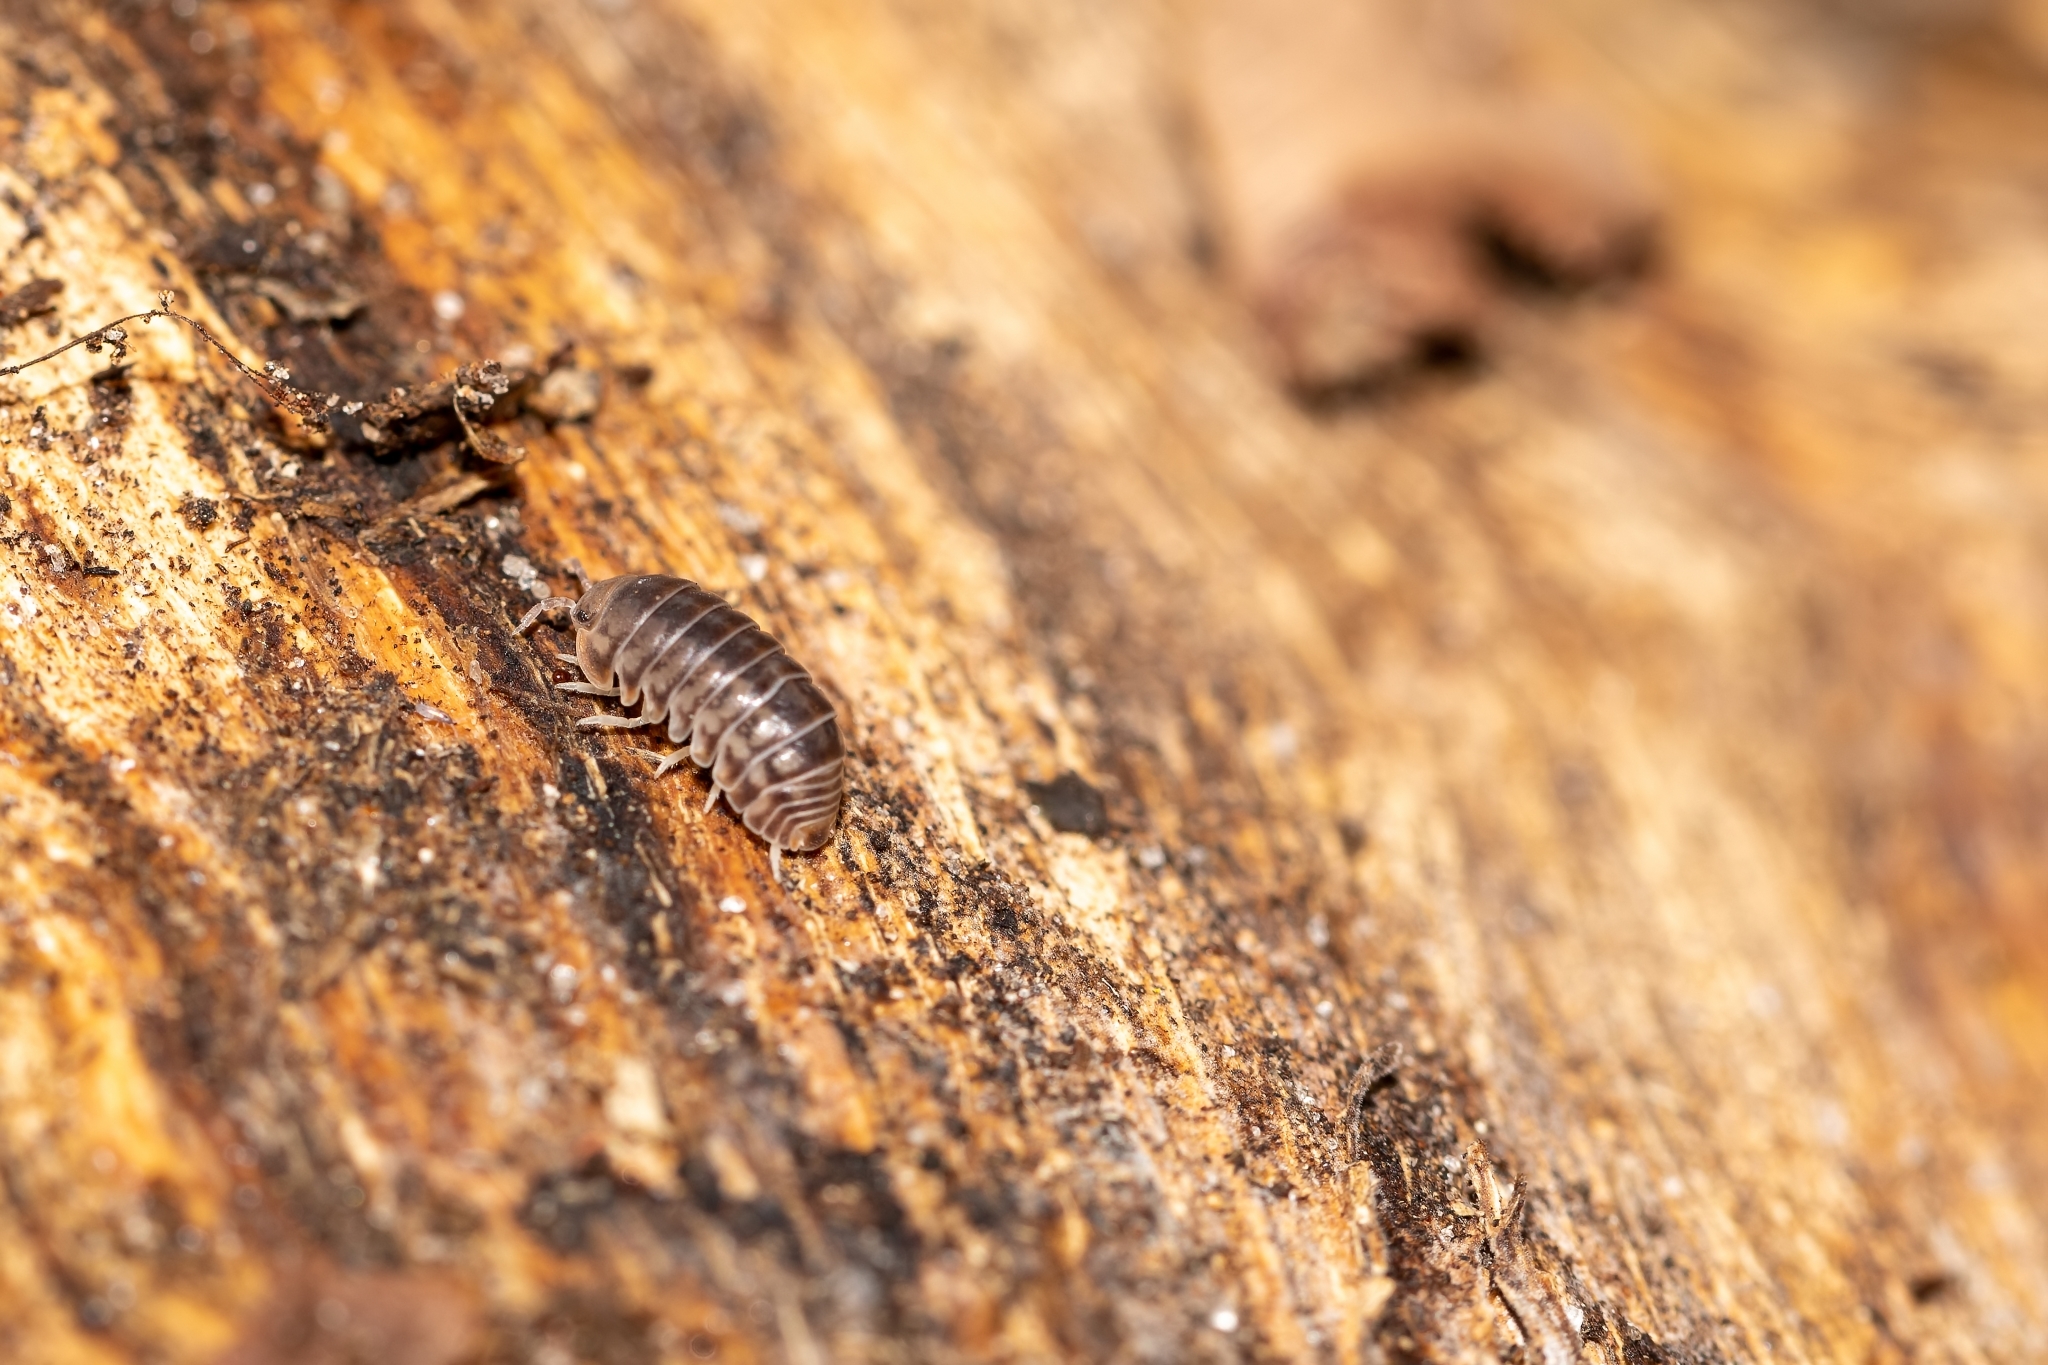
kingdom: Animalia
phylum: Arthropoda
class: Malacostraca
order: Isopoda
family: Armadillidae
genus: Venezillo
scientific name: Venezillo parvus
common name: Pillbug
